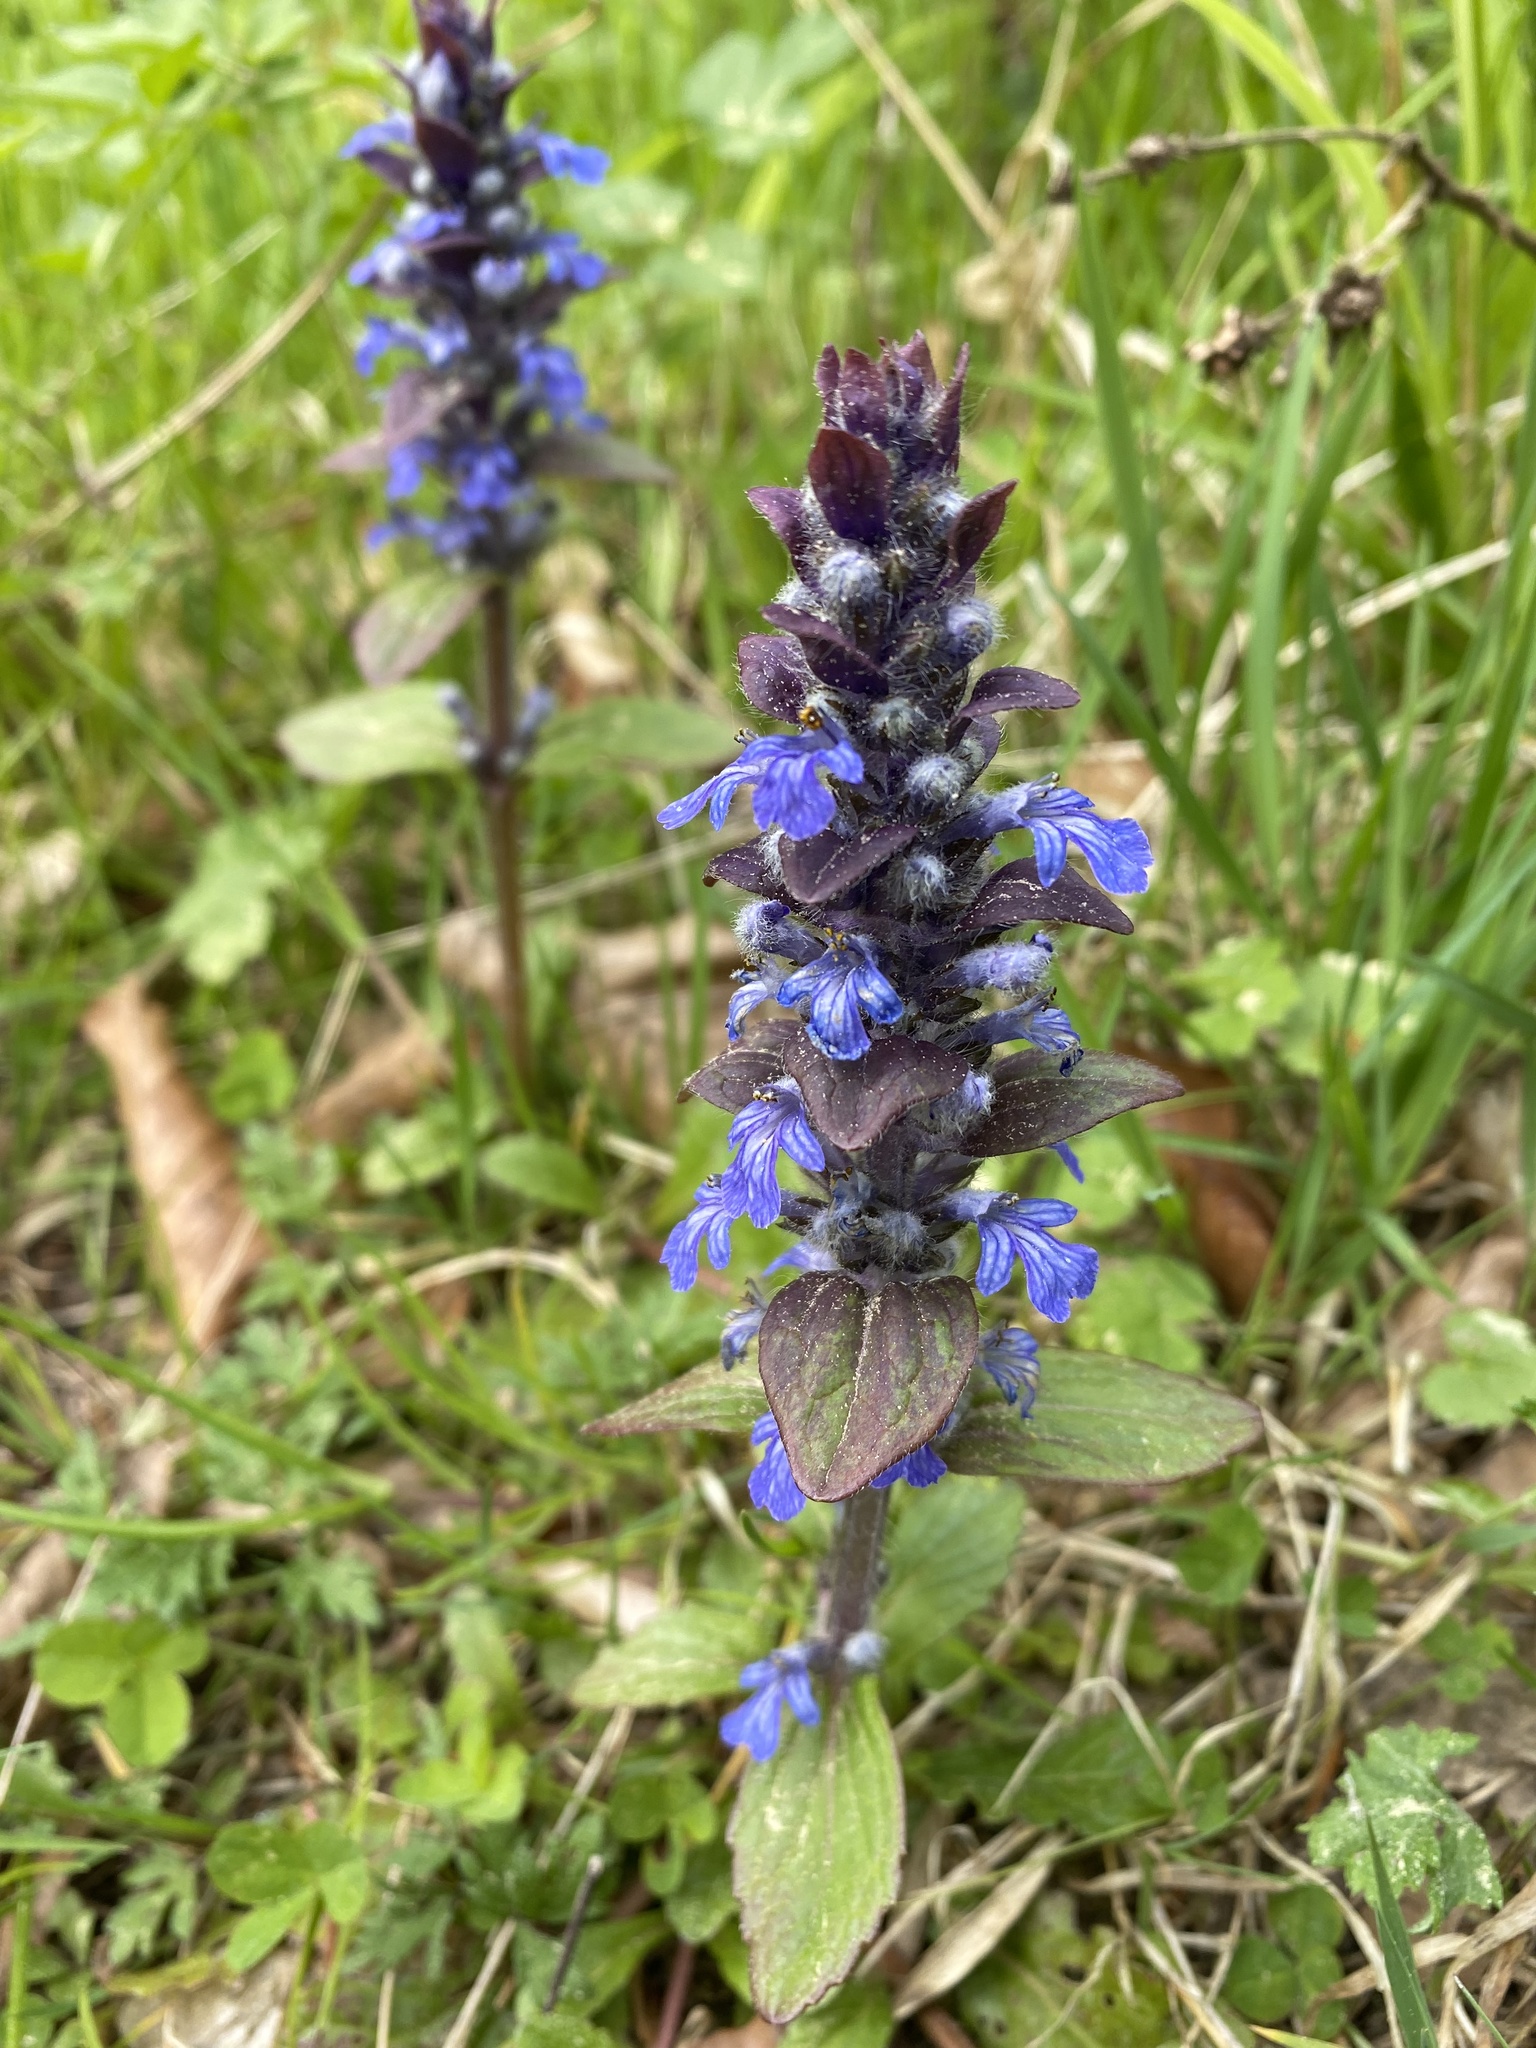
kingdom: Plantae
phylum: Tracheophyta
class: Magnoliopsida
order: Lamiales
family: Lamiaceae
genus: Ajuga
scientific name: Ajuga reptans
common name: Bugle
